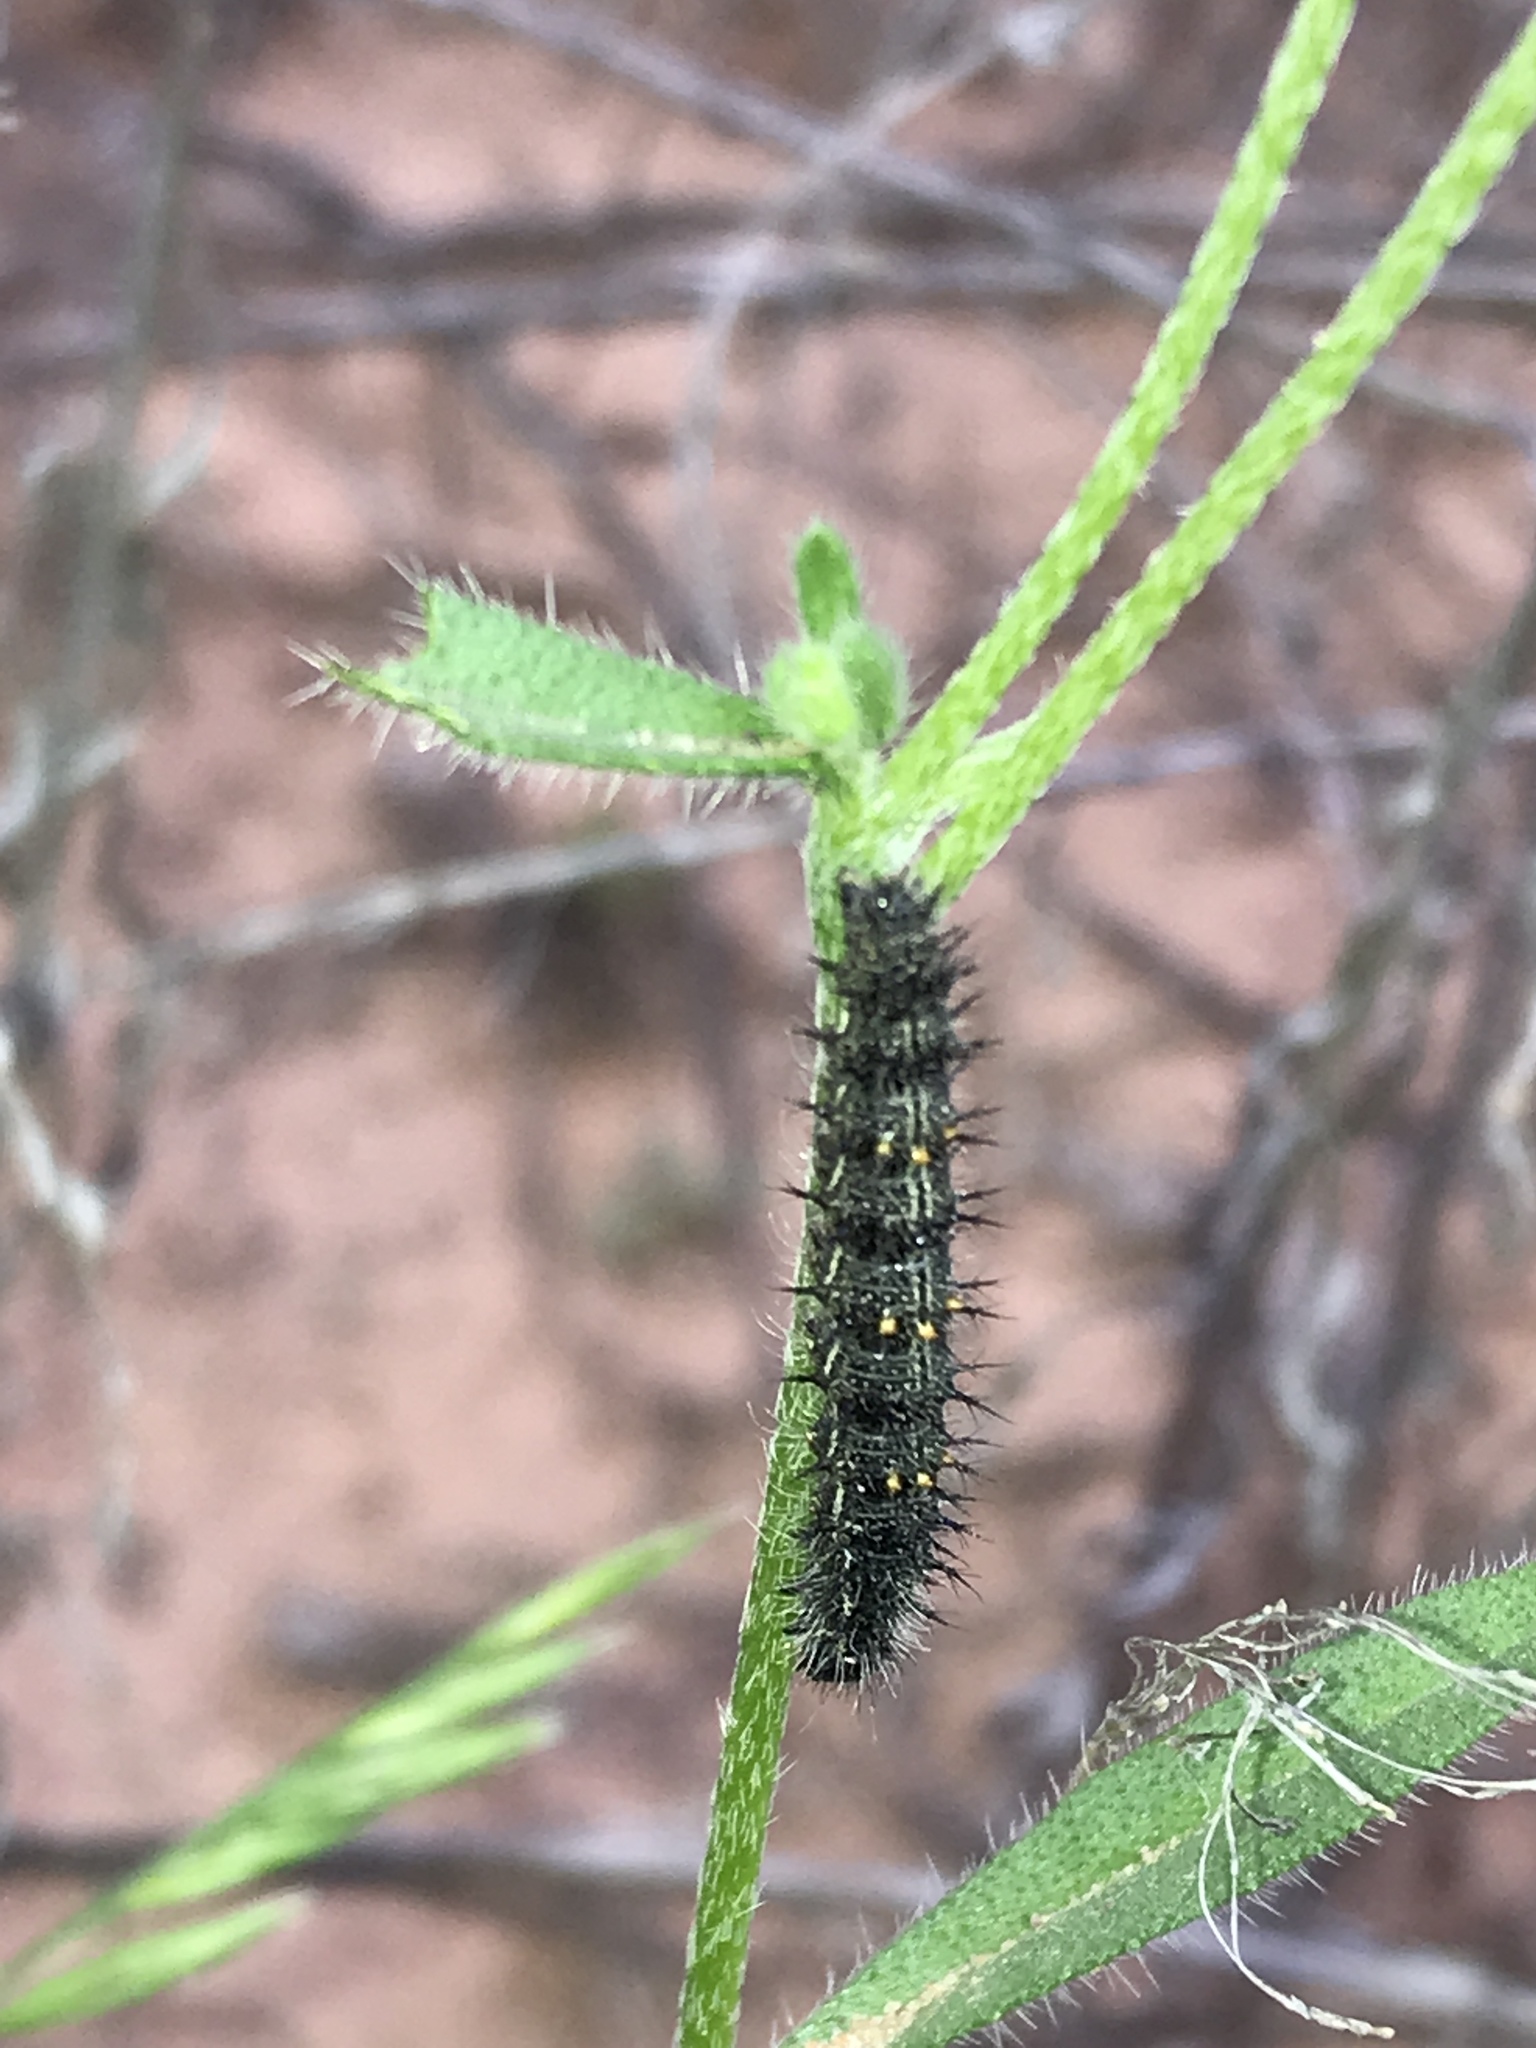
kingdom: Animalia
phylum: Arthropoda
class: Insecta
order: Lepidoptera
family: Nymphalidae
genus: Vanessa
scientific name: Vanessa cardui
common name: Painted lady
